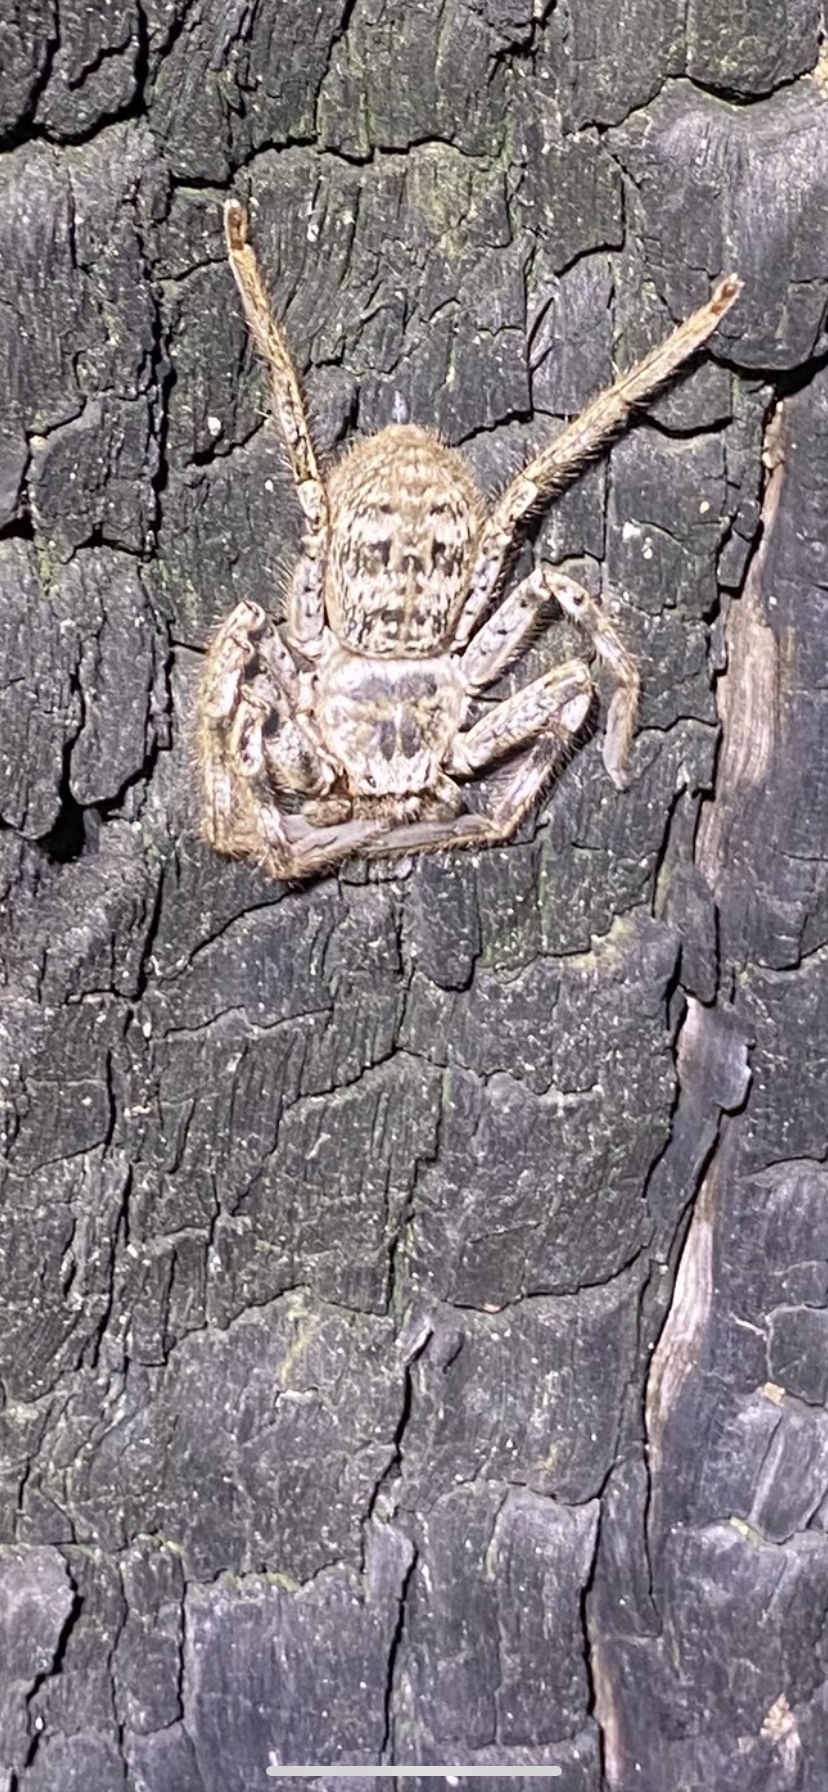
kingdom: Animalia
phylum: Arthropoda
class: Arachnida
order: Araneae
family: Sparassidae
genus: Holconia
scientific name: Holconia westralia
